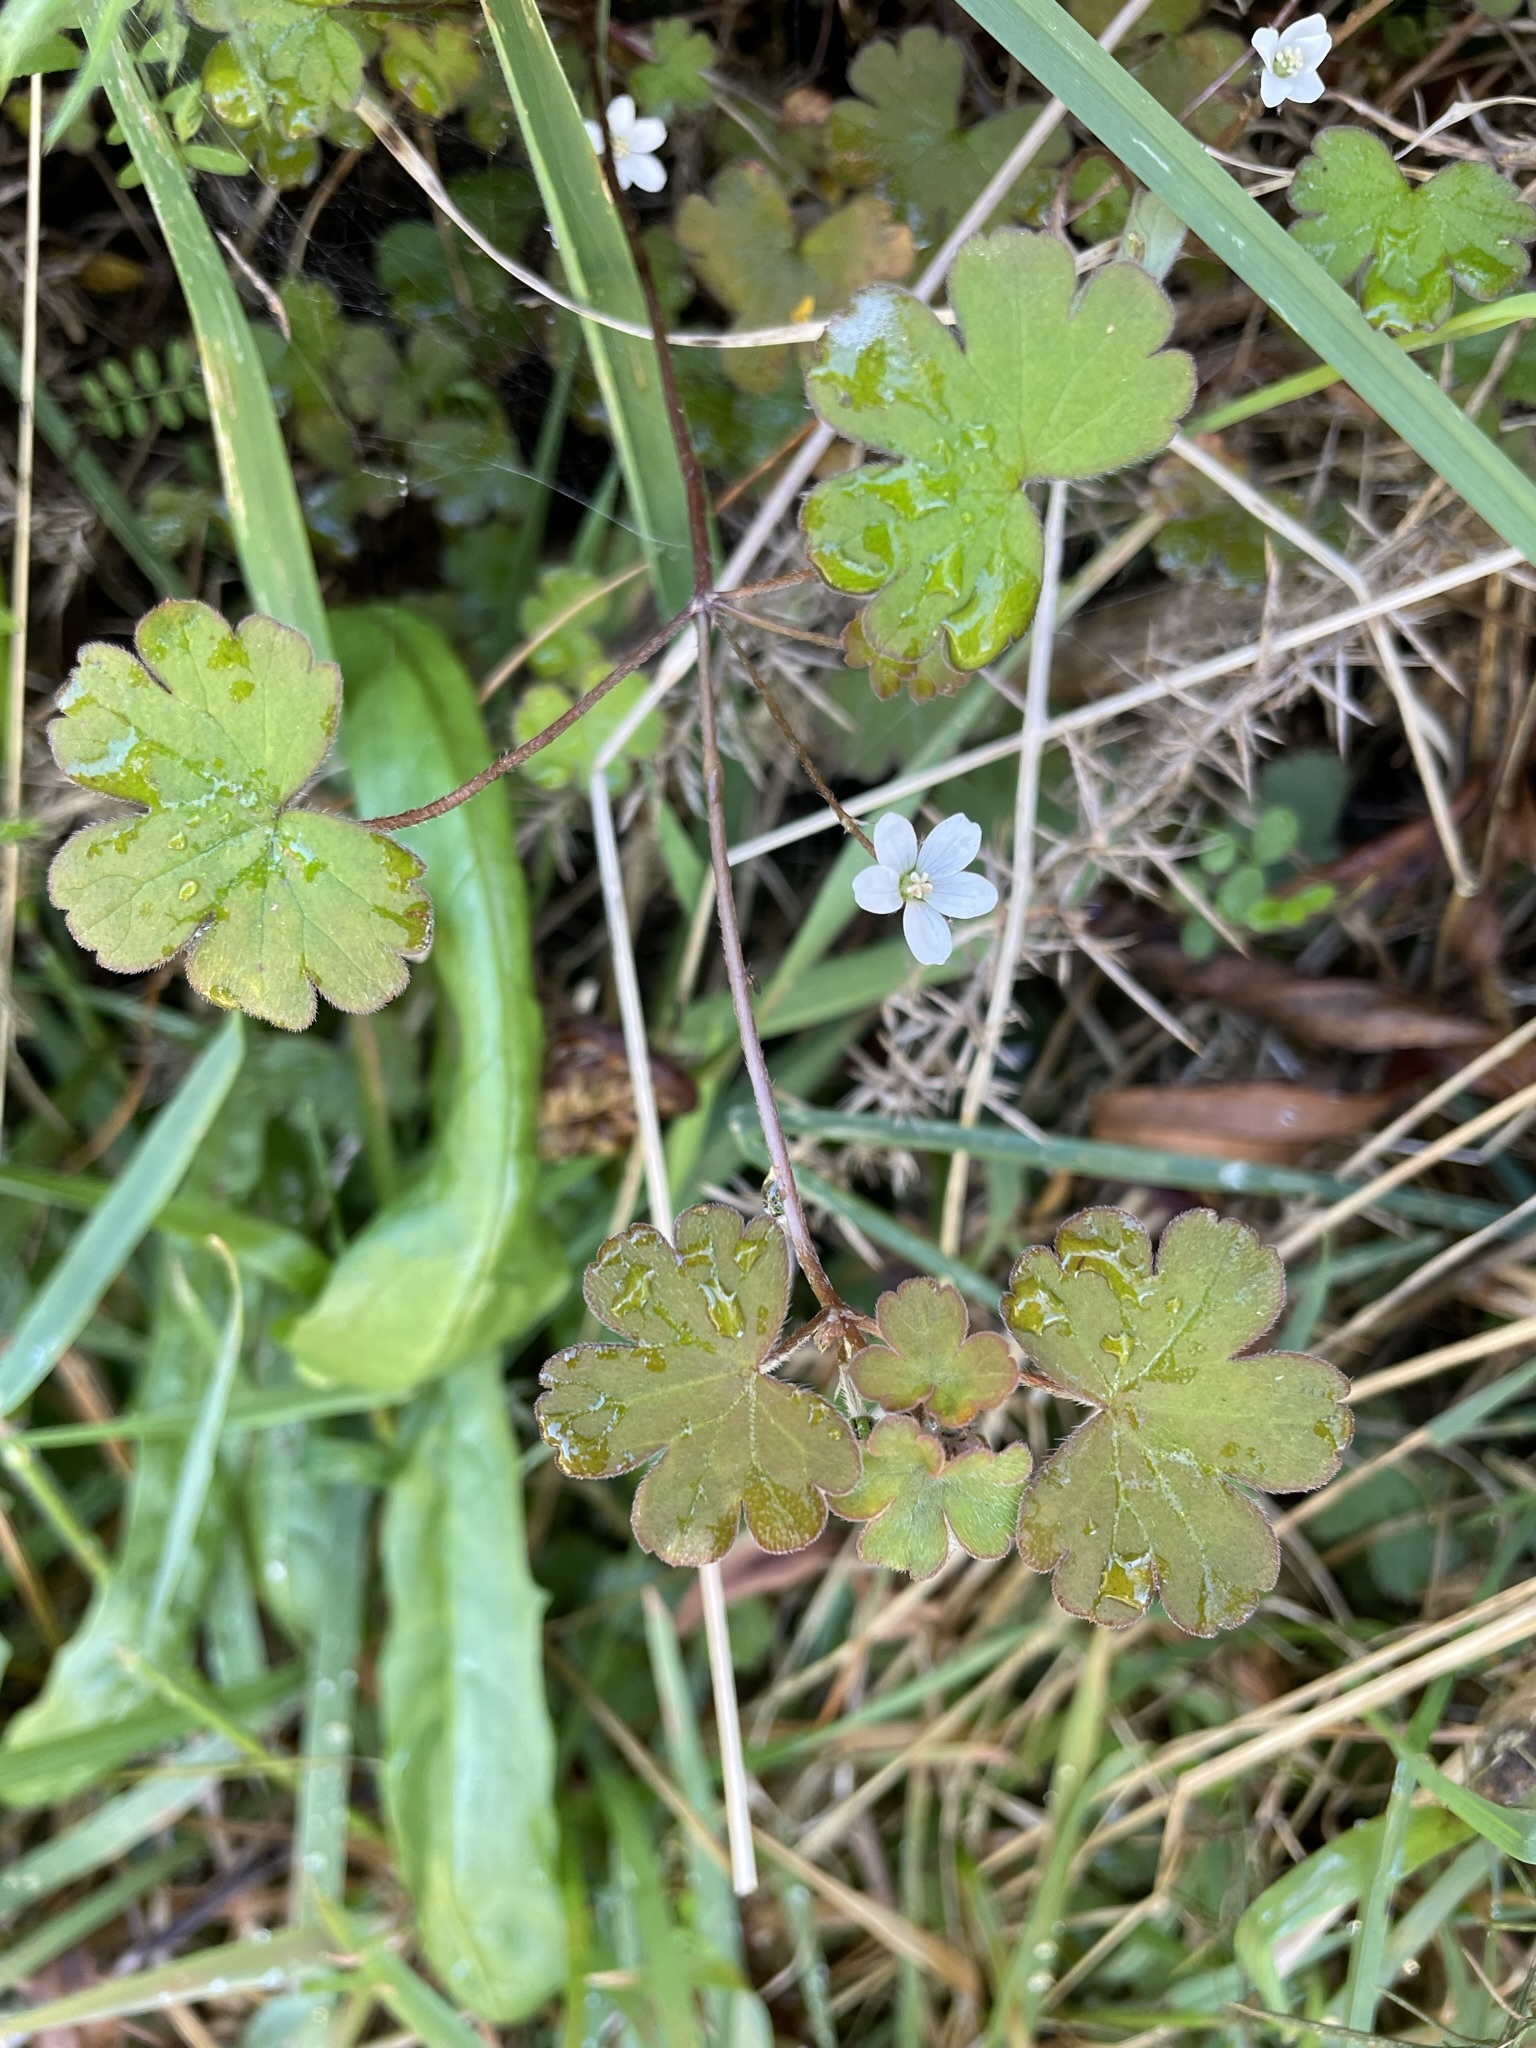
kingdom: Plantae
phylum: Tracheophyta
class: Magnoliopsida
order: Geraniales
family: Geraniaceae
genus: Geranium
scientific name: Geranium
